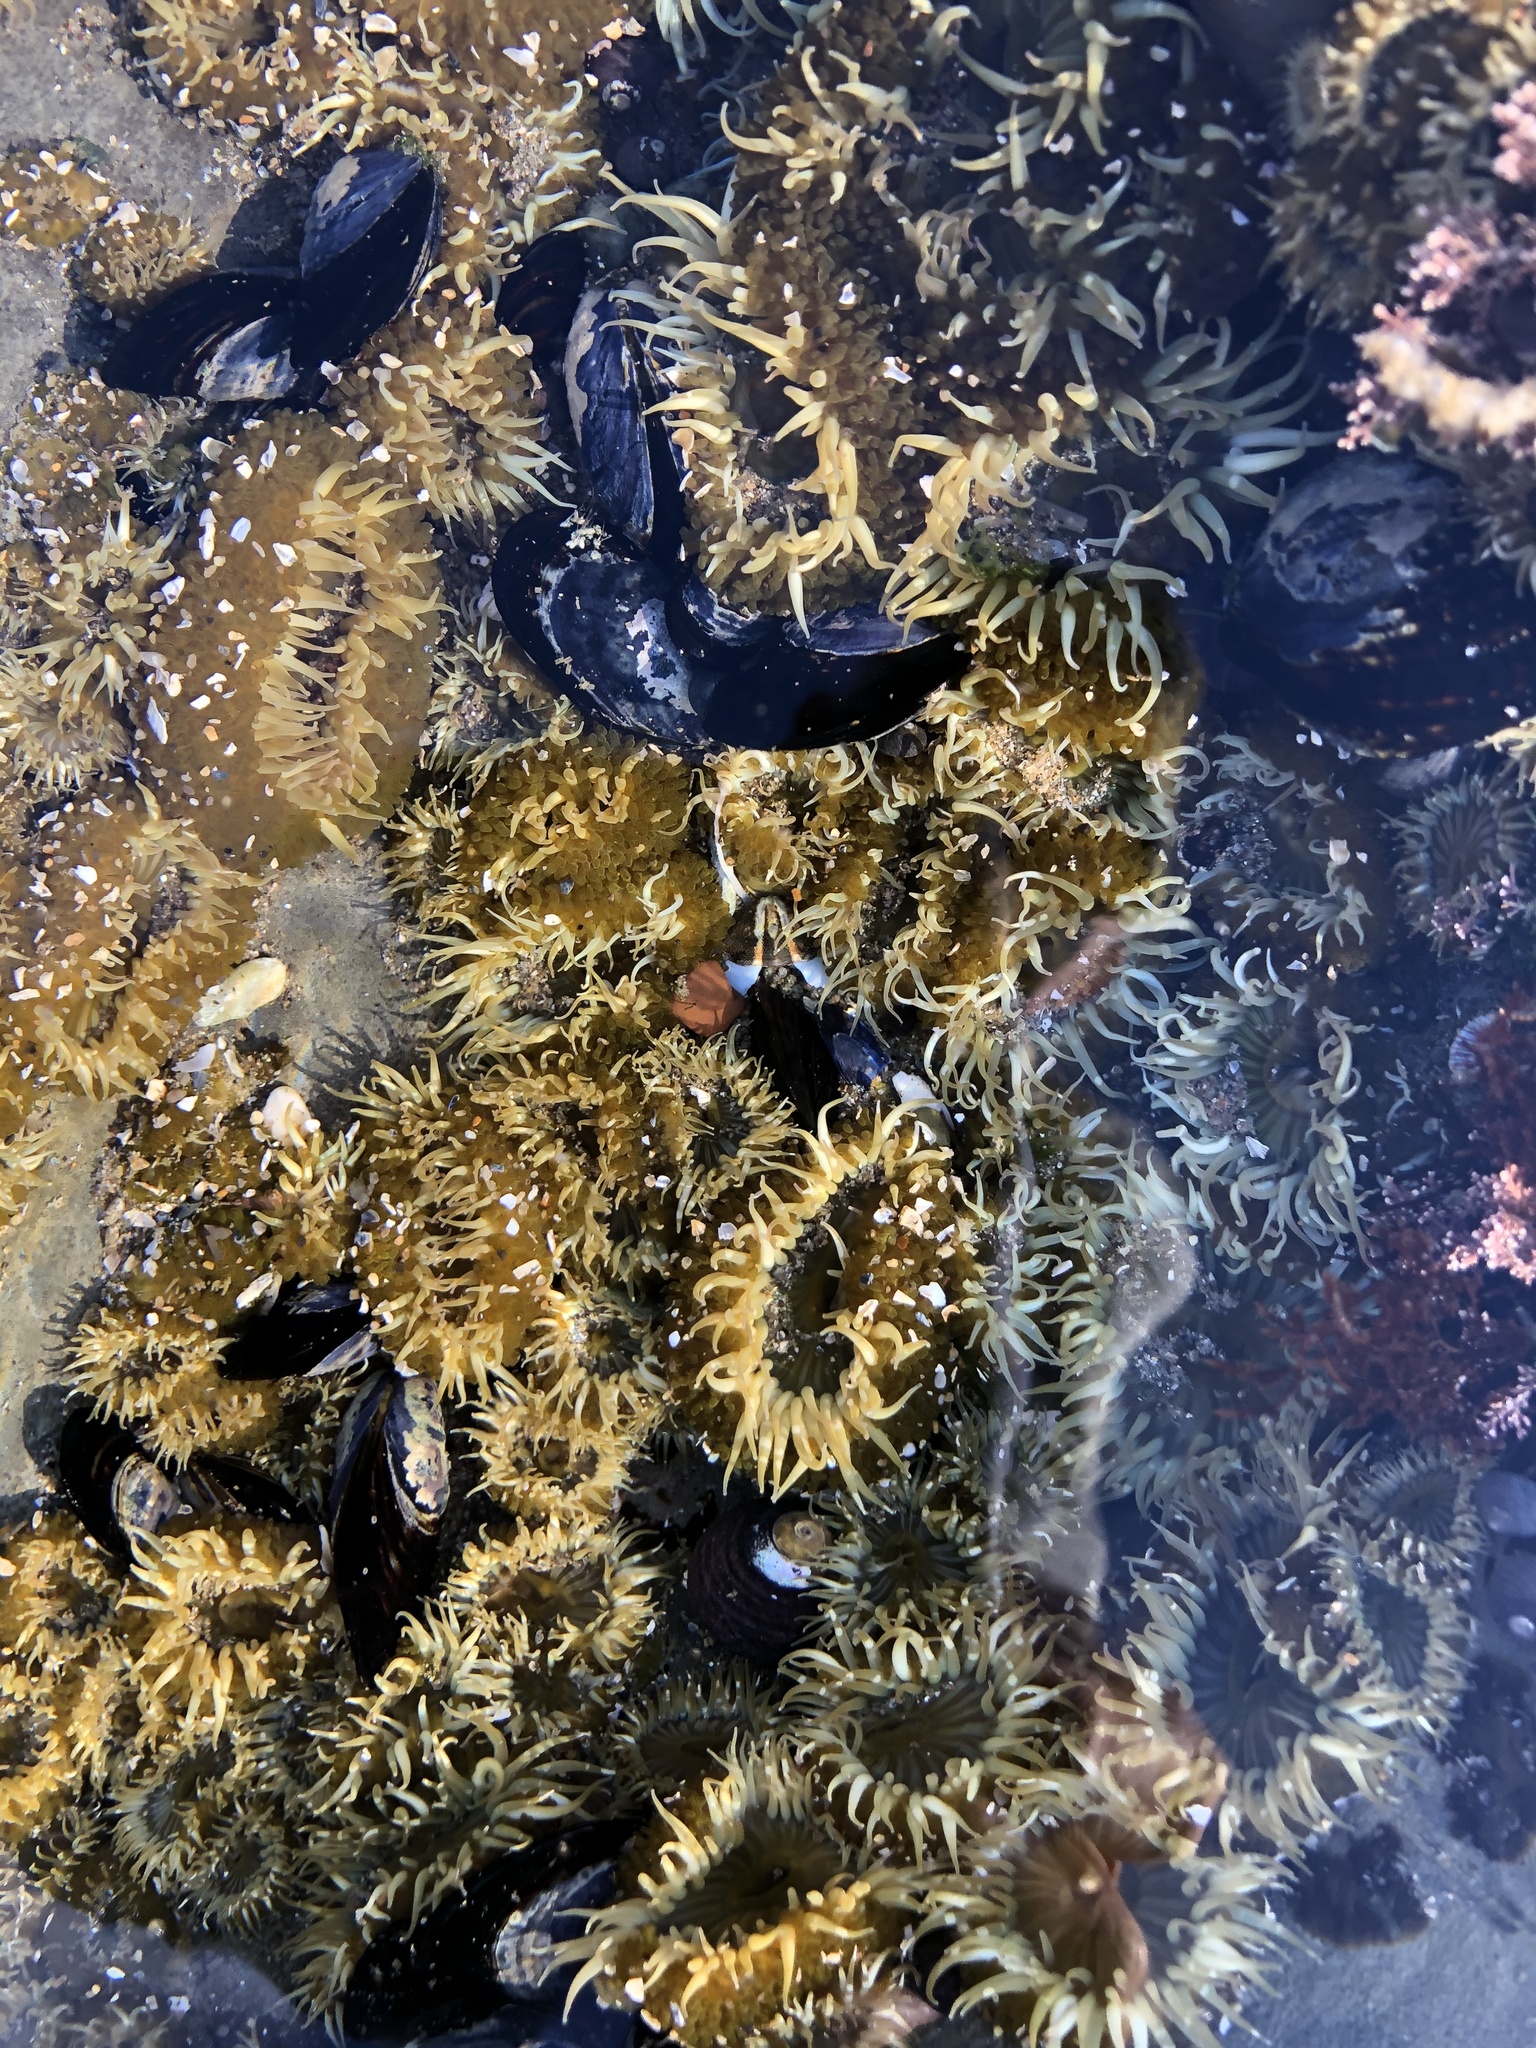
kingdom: Animalia
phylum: Cnidaria
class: Anthozoa
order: Actiniaria
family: Actiniidae
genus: Anthopleura
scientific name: Anthopleura elegantissima
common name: Clonal anemone
